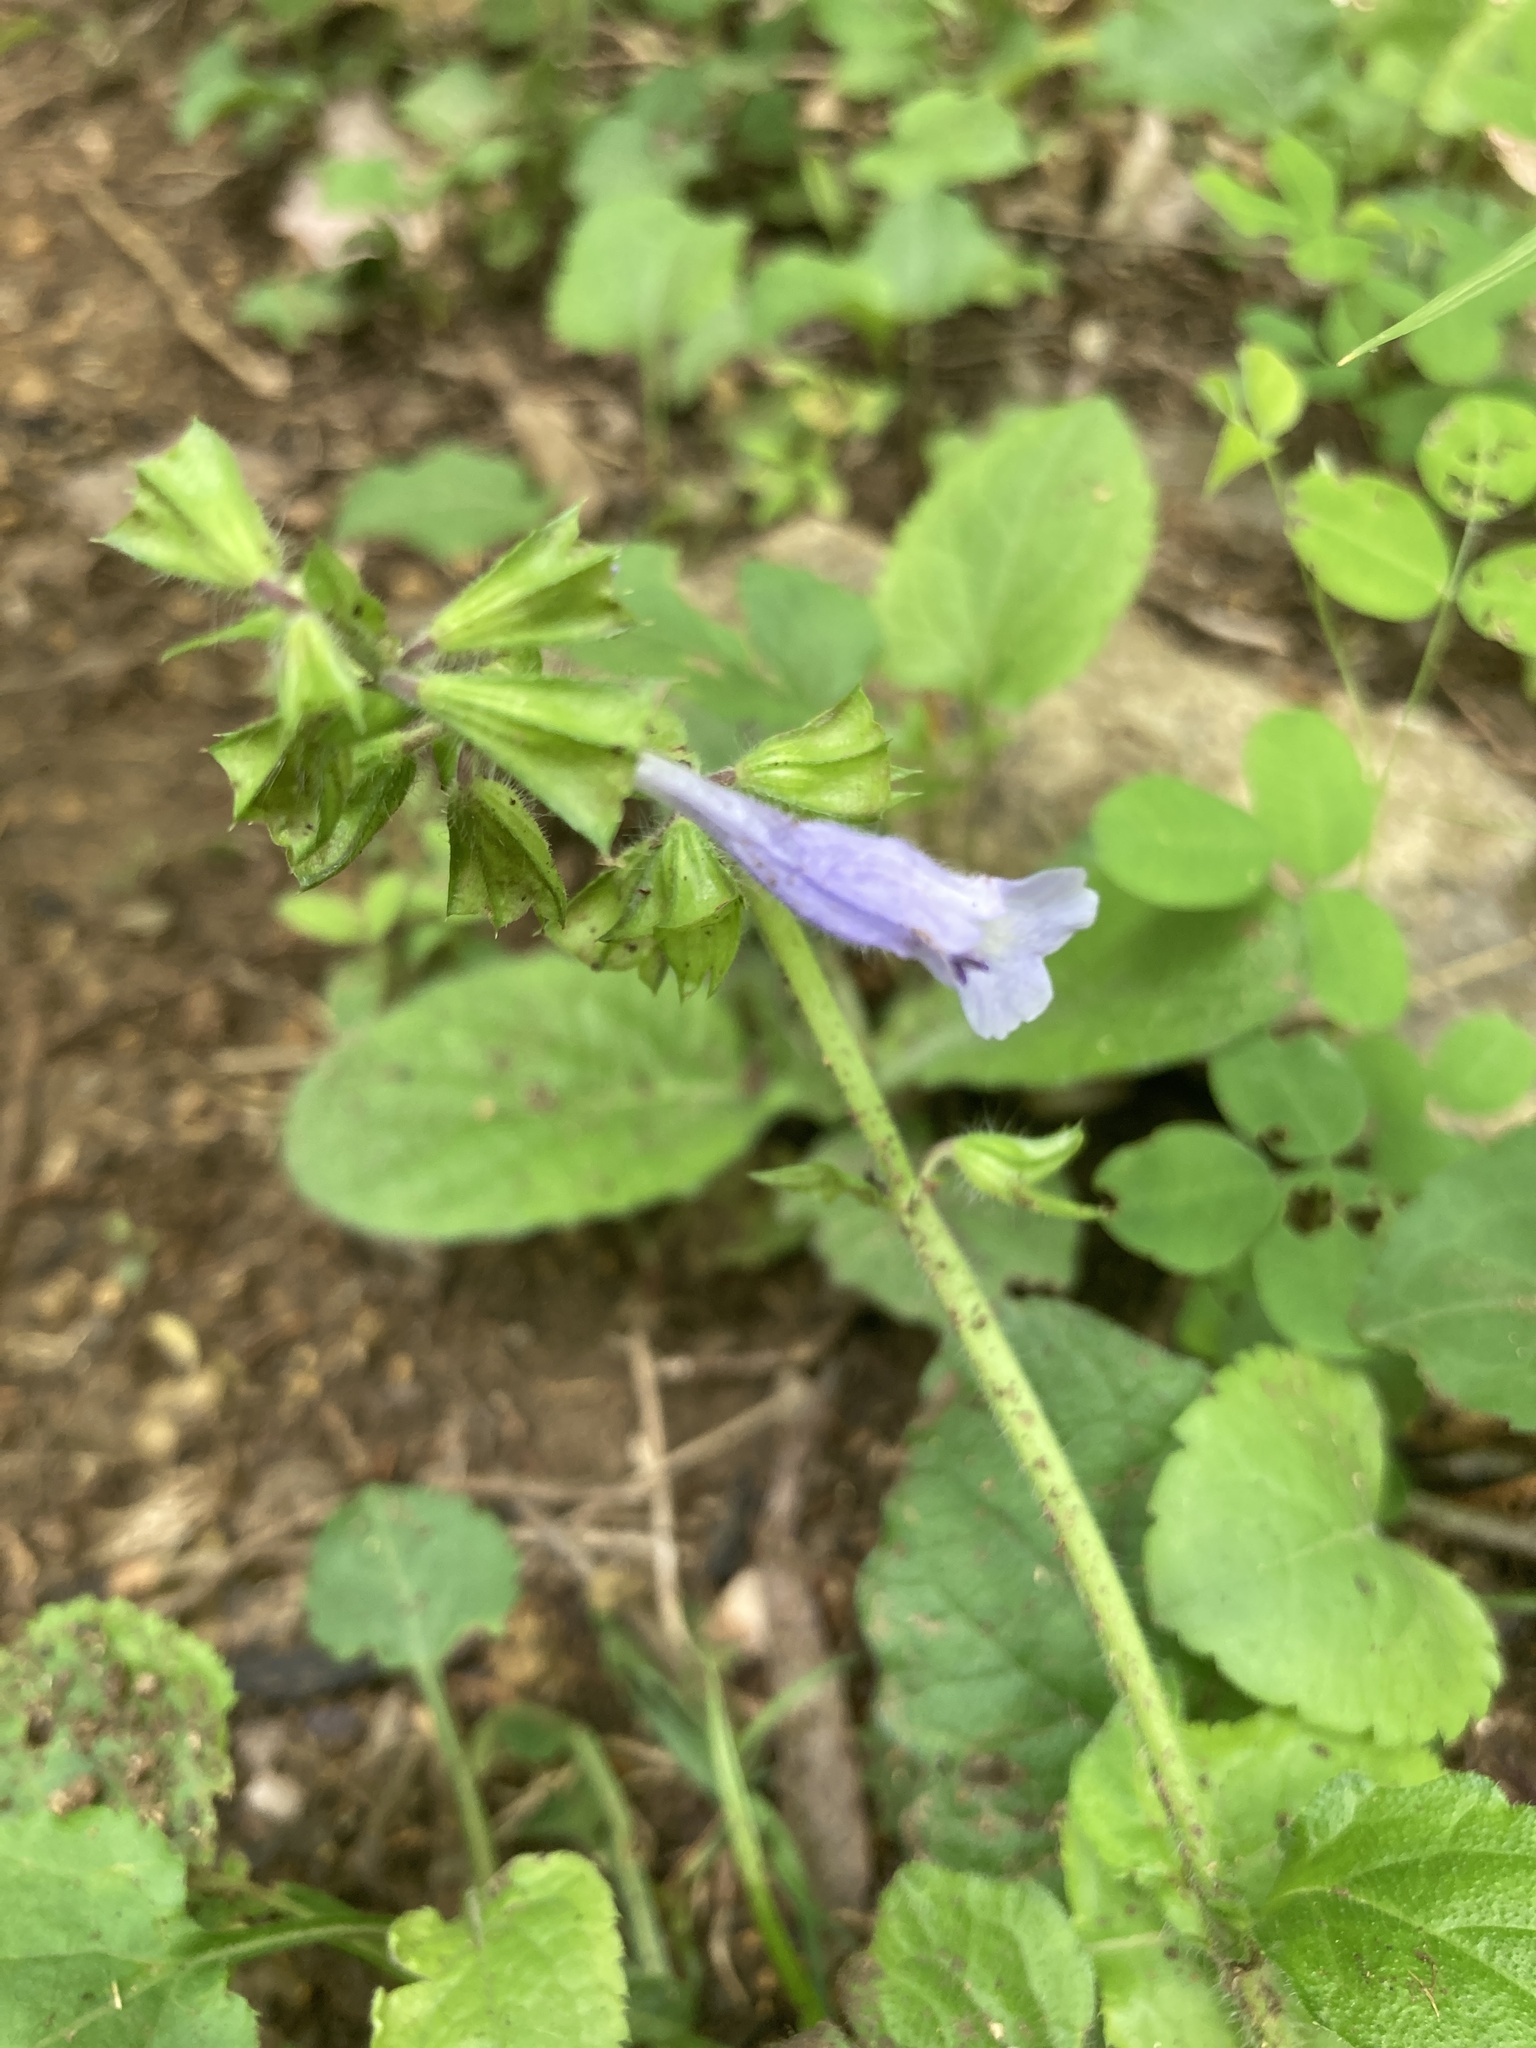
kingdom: Plantae
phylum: Tracheophyta
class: Magnoliopsida
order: Lamiales
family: Lamiaceae
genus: Salvia
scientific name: Salvia lyrata
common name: Cancerweed
